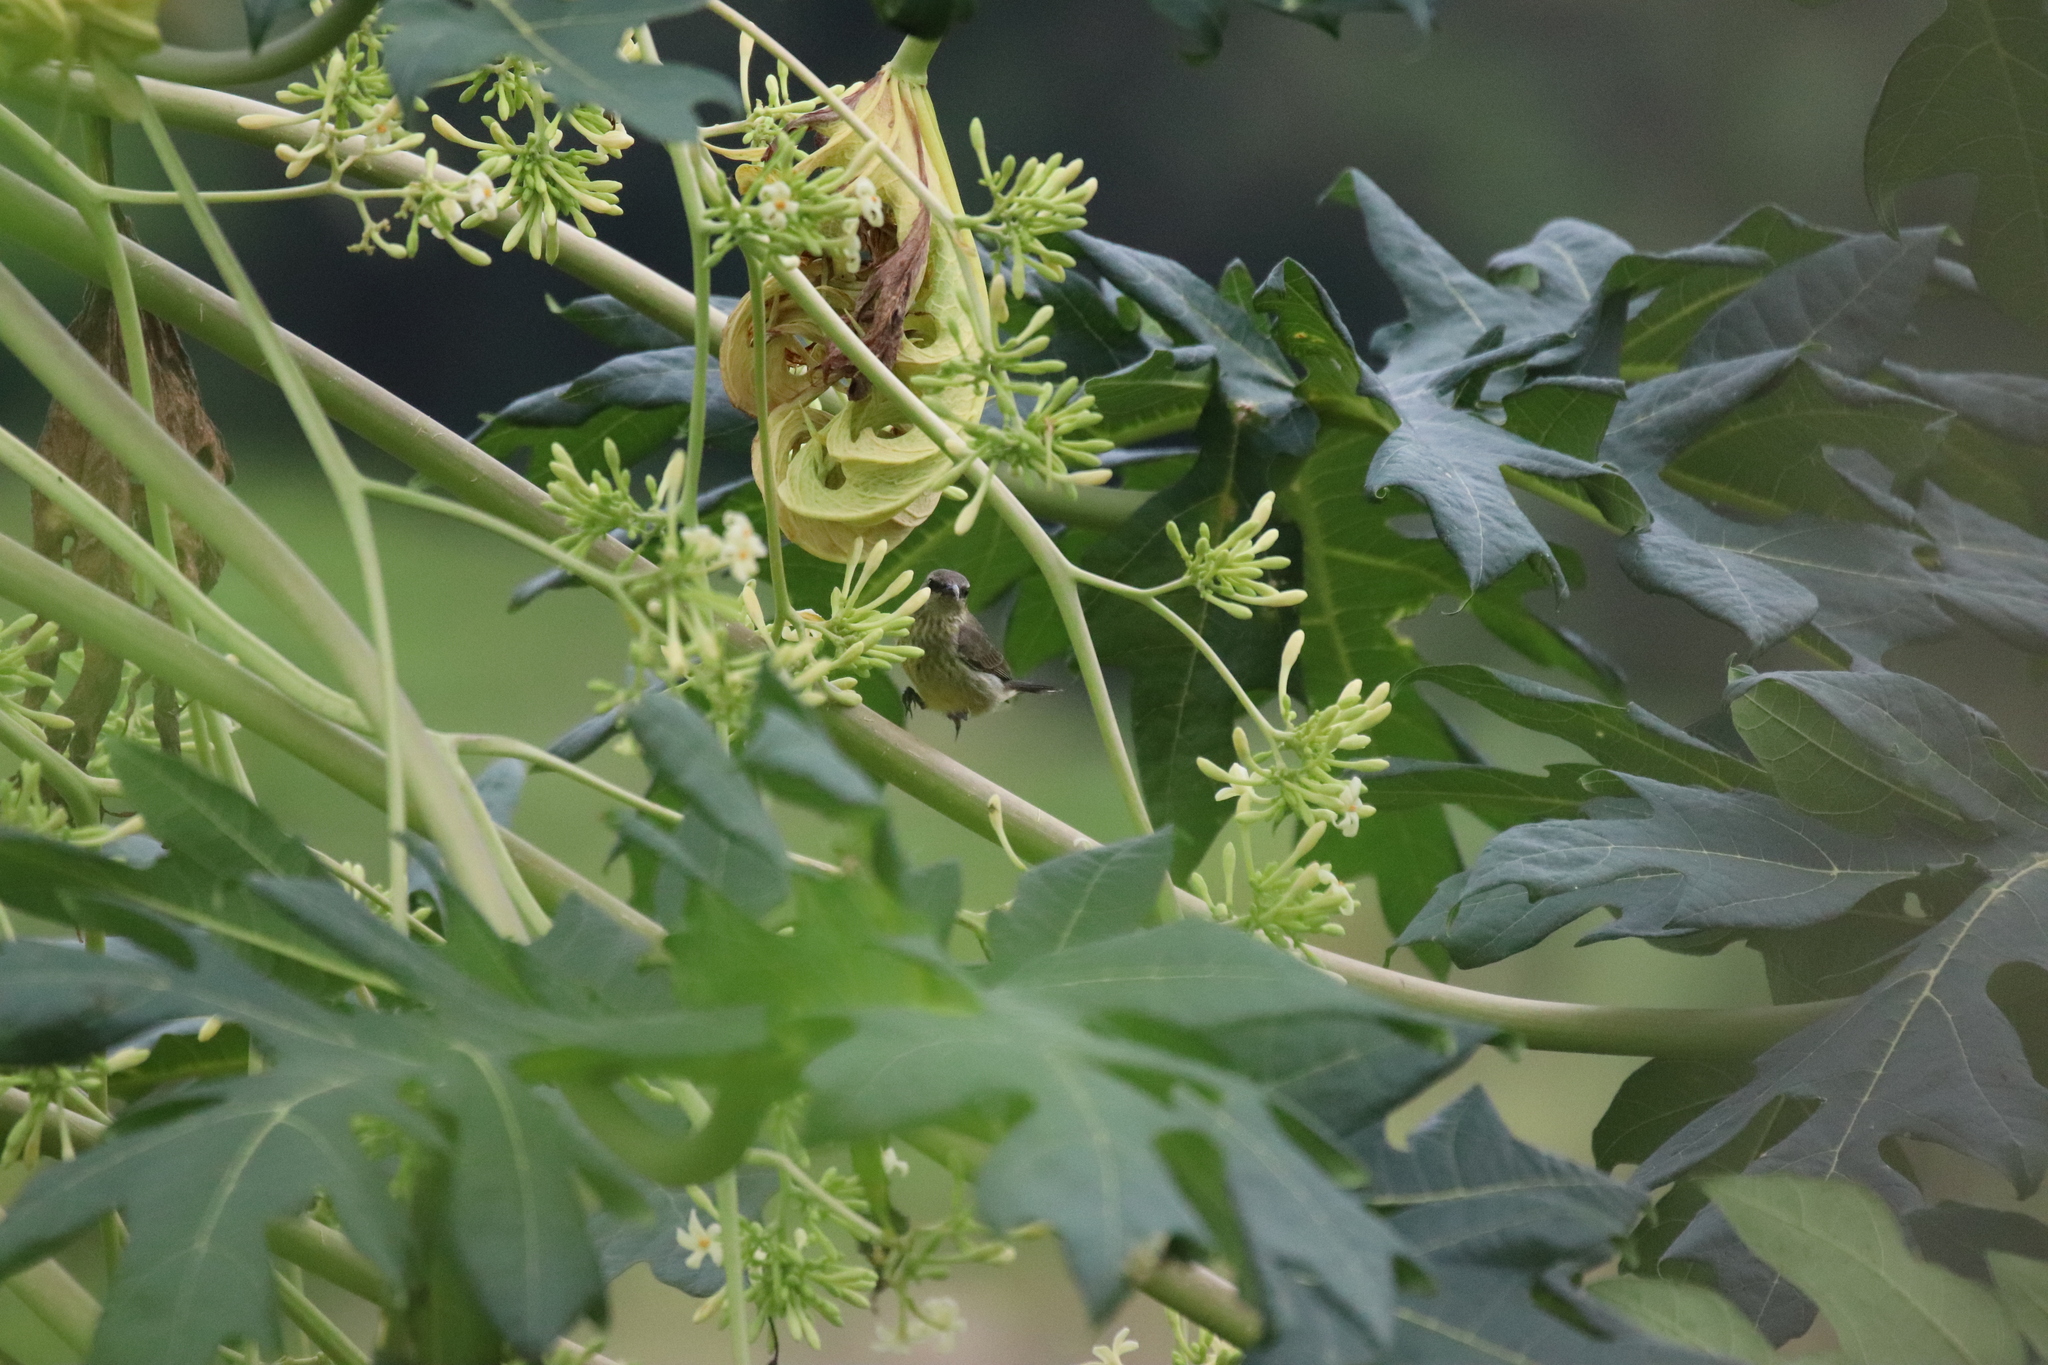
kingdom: Animalia
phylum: Chordata
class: Aves
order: Passeriformes
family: Nectariniidae
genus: Cinnyris
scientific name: Cinnyris coccinigastrus
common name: Splendid sunbird
